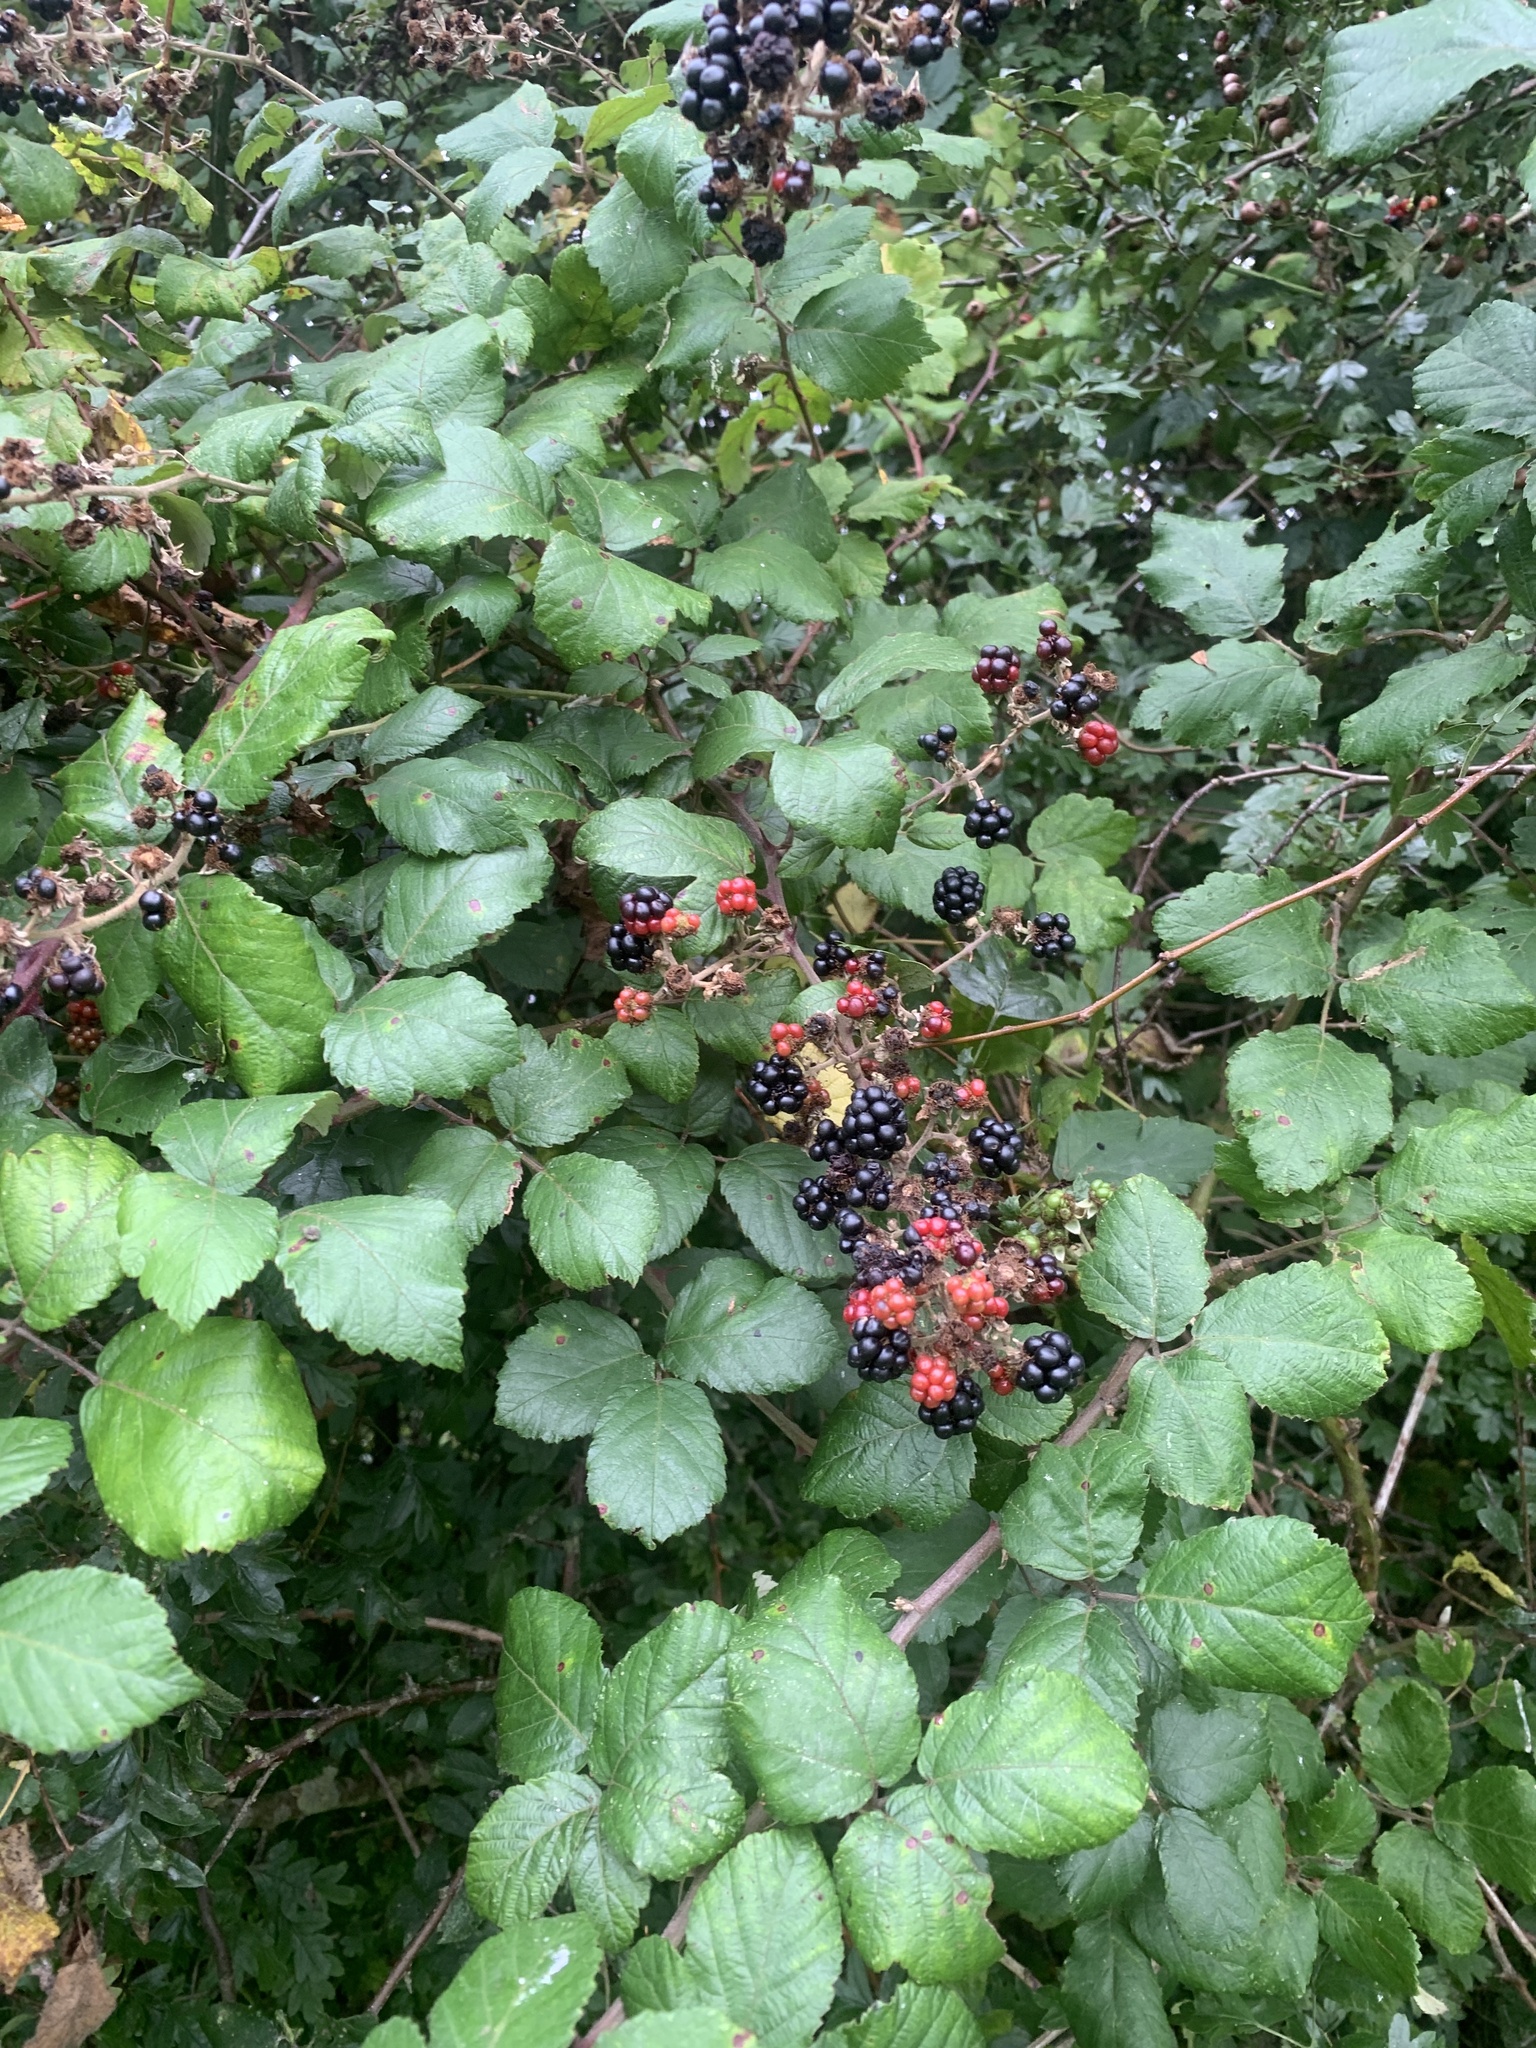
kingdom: Plantae
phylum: Tracheophyta
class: Magnoliopsida
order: Rosales
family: Rosaceae
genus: Rubus
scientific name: Rubus fruticosus
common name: Blackberry, bramble
